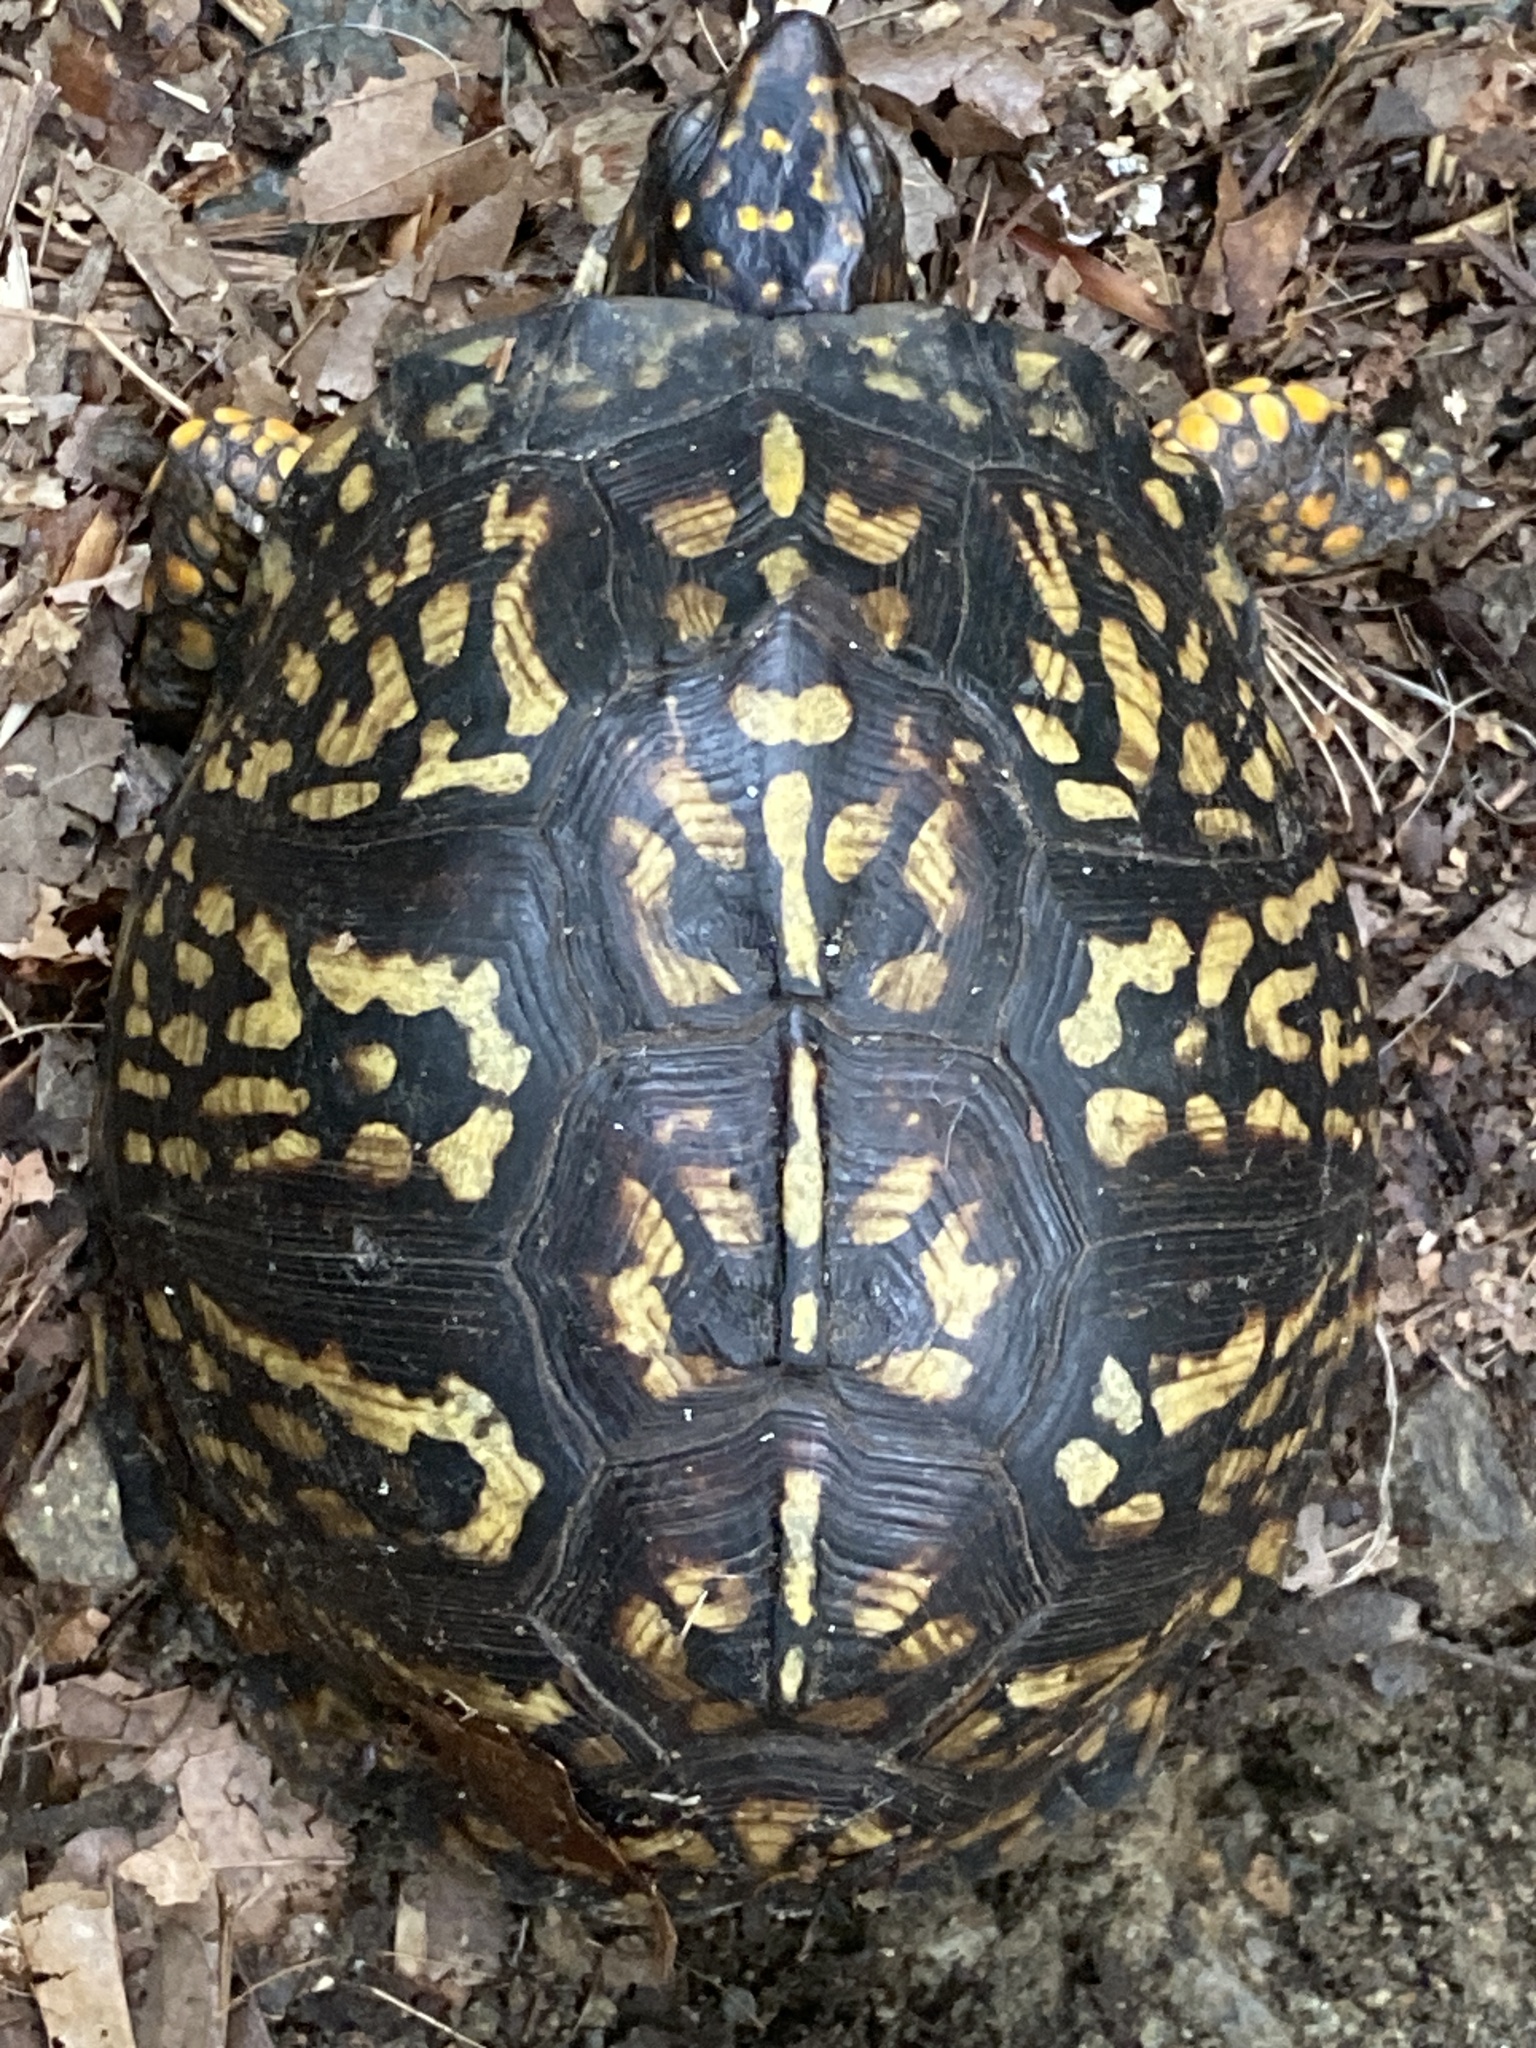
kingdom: Animalia
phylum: Chordata
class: Testudines
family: Emydidae
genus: Terrapene
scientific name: Terrapene carolina
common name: Common box turtle
